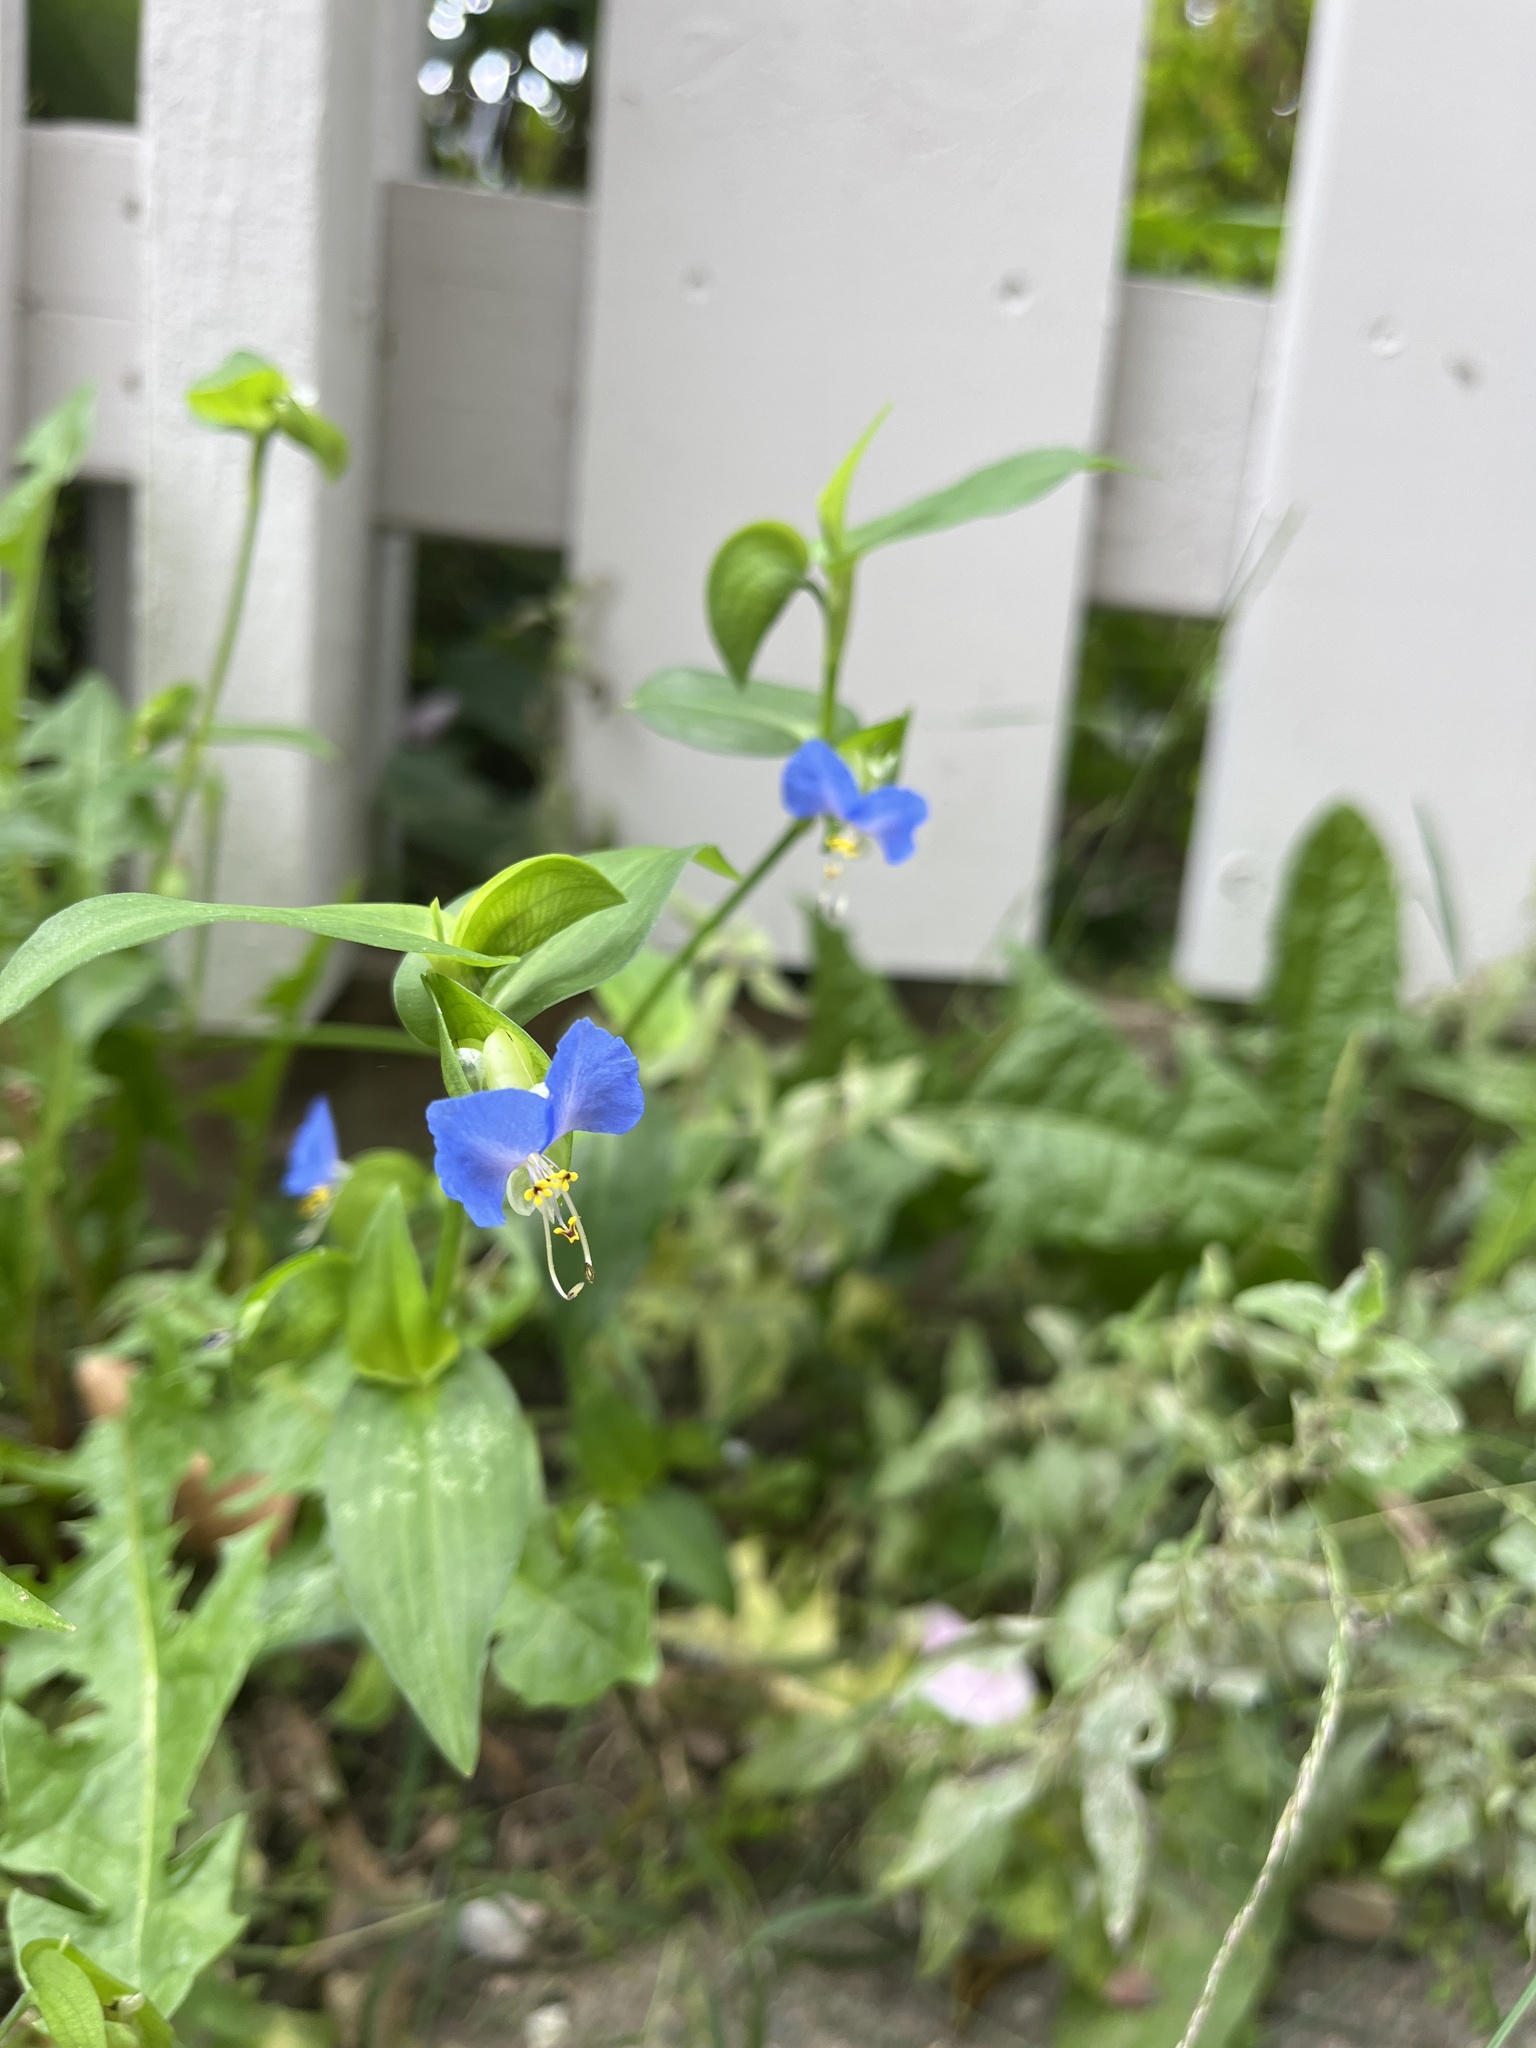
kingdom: Plantae
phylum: Tracheophyta
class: Liliopsida
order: Commelinales
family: Commelinaceae
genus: Commelina
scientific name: Commelina communis
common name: Asiatic dayflower
